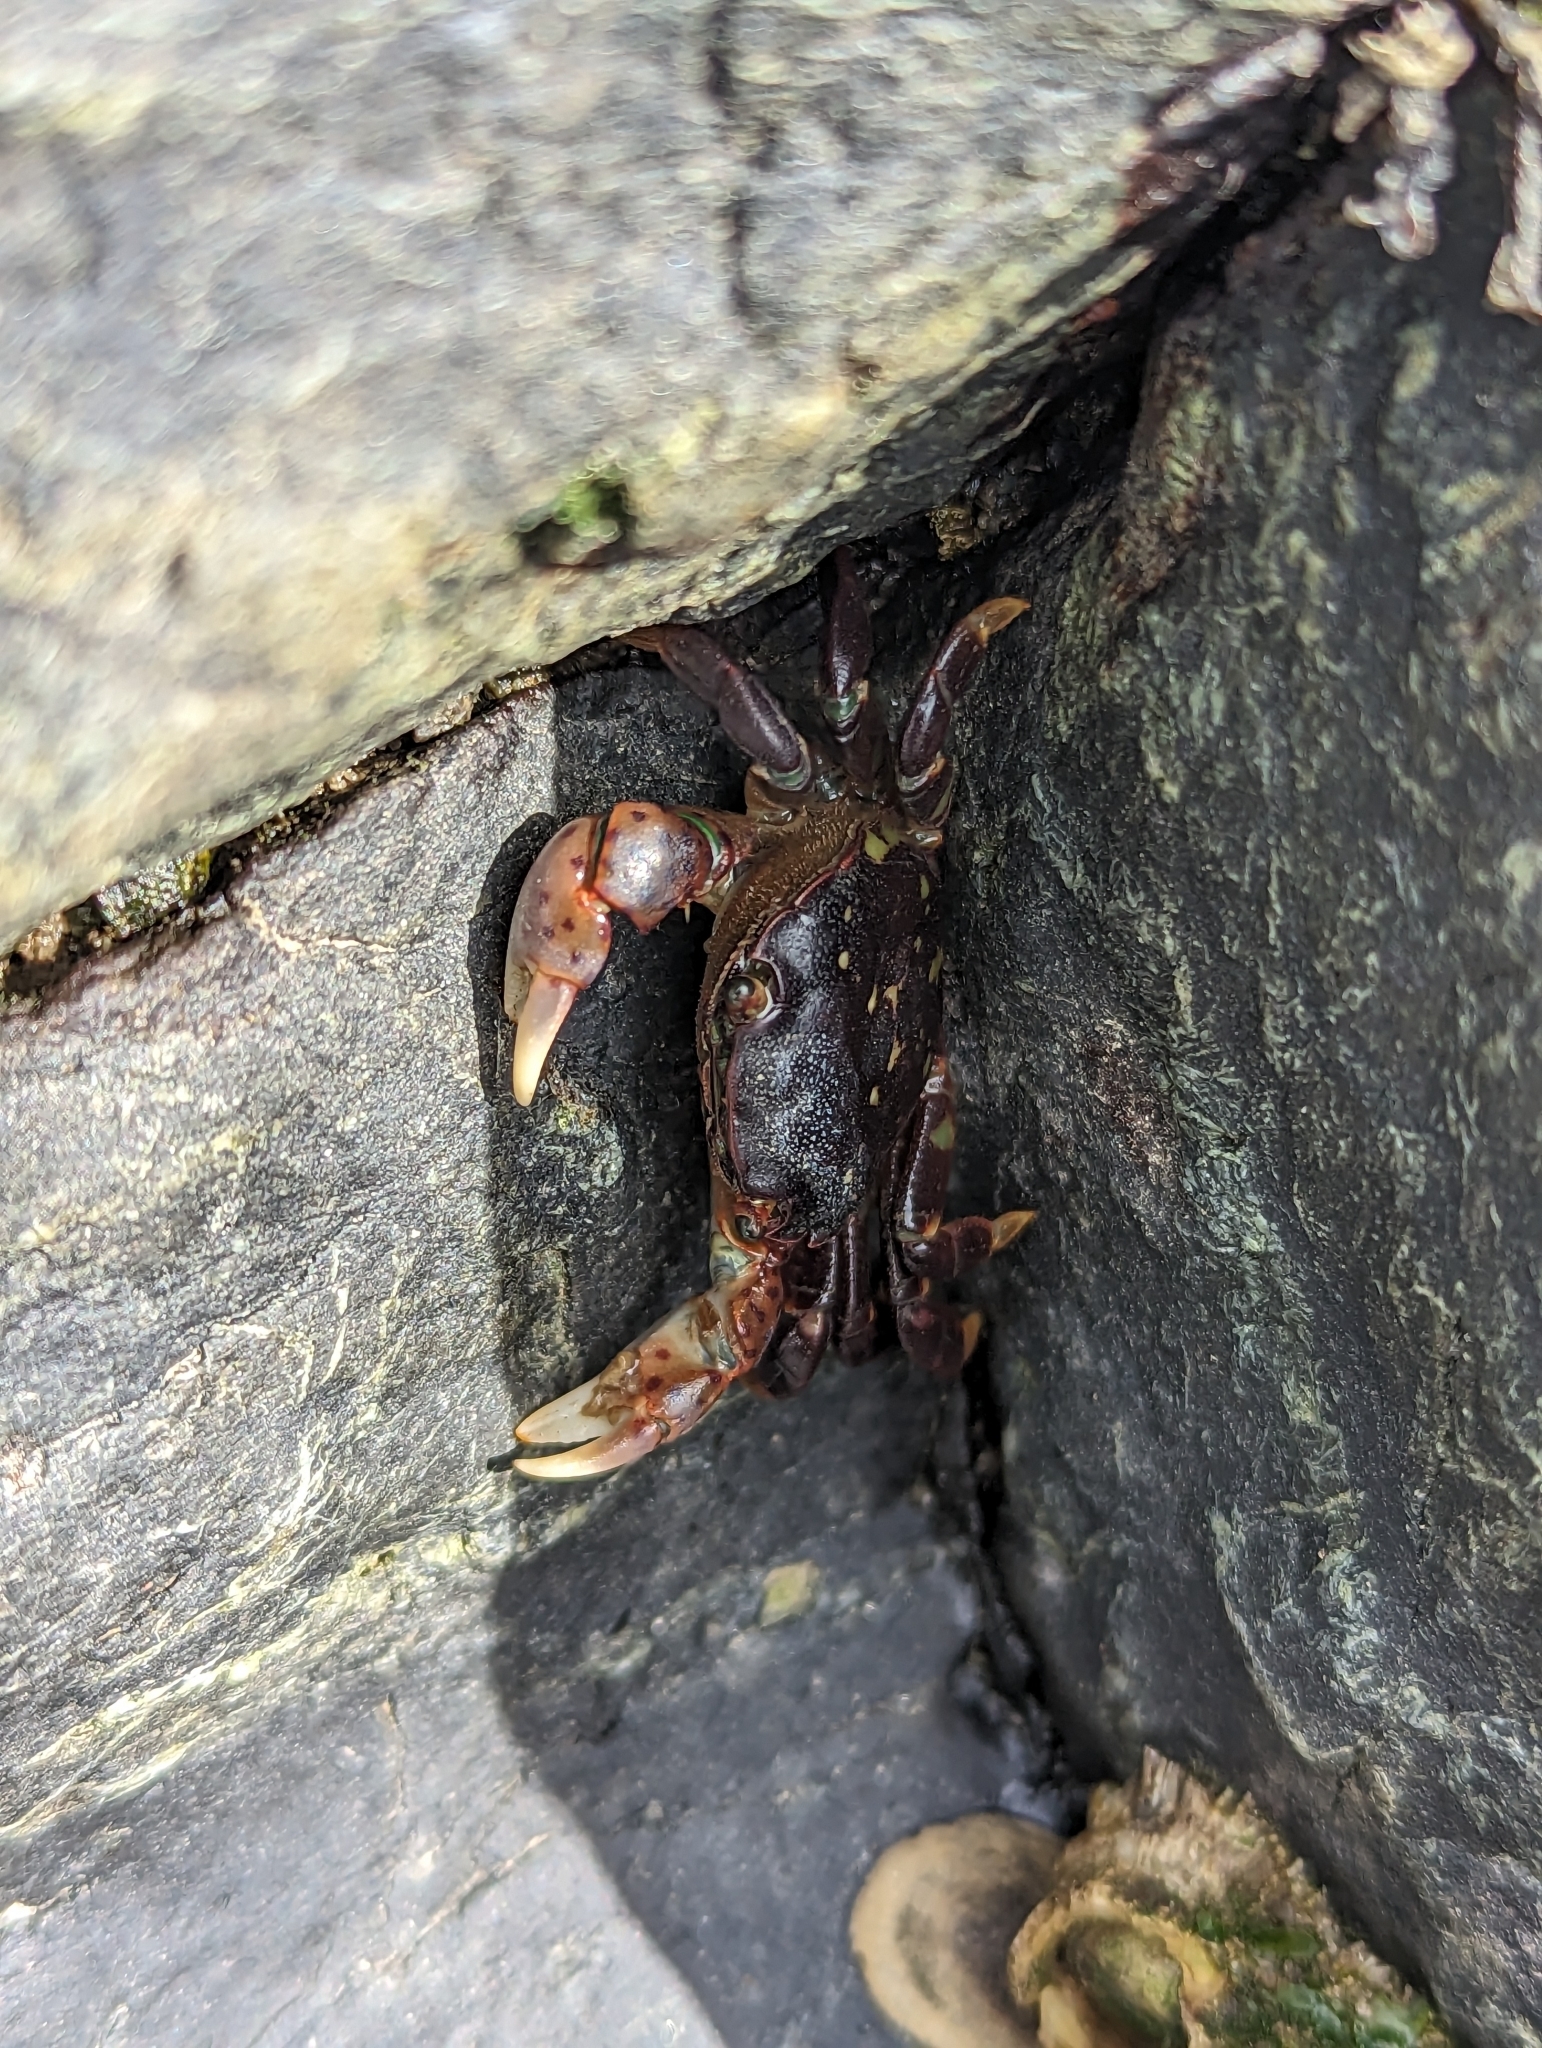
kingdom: Animalia
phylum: Arthropoda
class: Malacostraca
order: Decapoda
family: Varunidae
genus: Hemigrapsus
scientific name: Hemigrapsus nudus
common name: Purple shore crab
